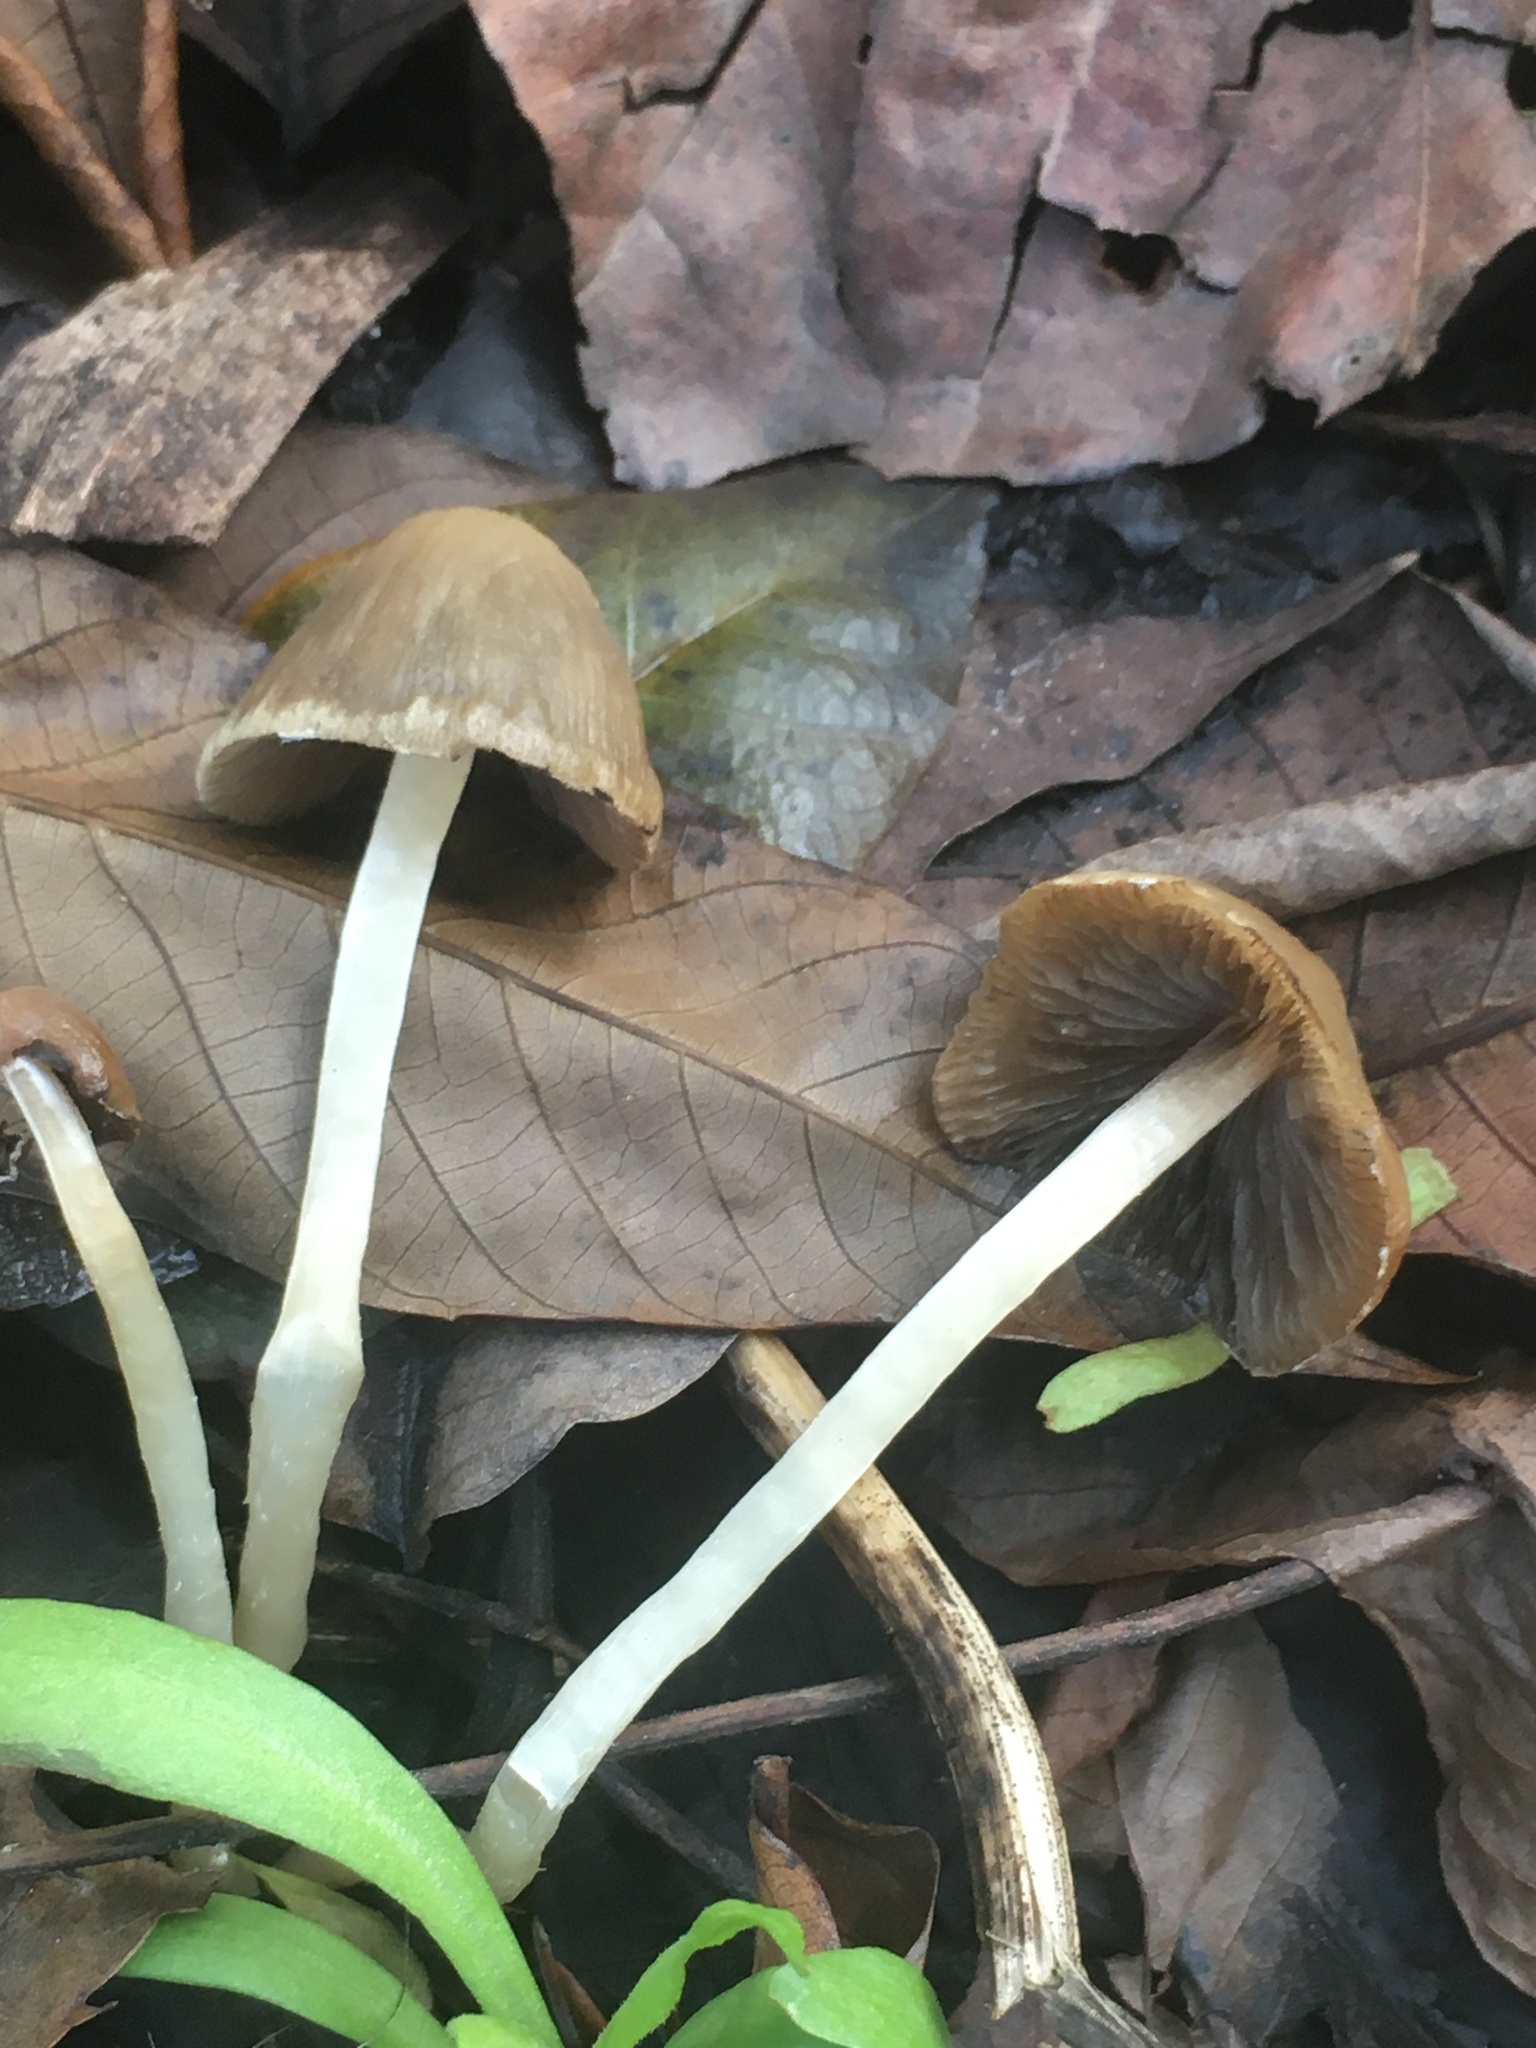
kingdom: Fungi
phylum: Basidiomycota
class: Agaricomycetes
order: Agaricales
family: Psathyrellaceae
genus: Psathyrella
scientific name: Psathyrella corrugis
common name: Red edge brittlestem
